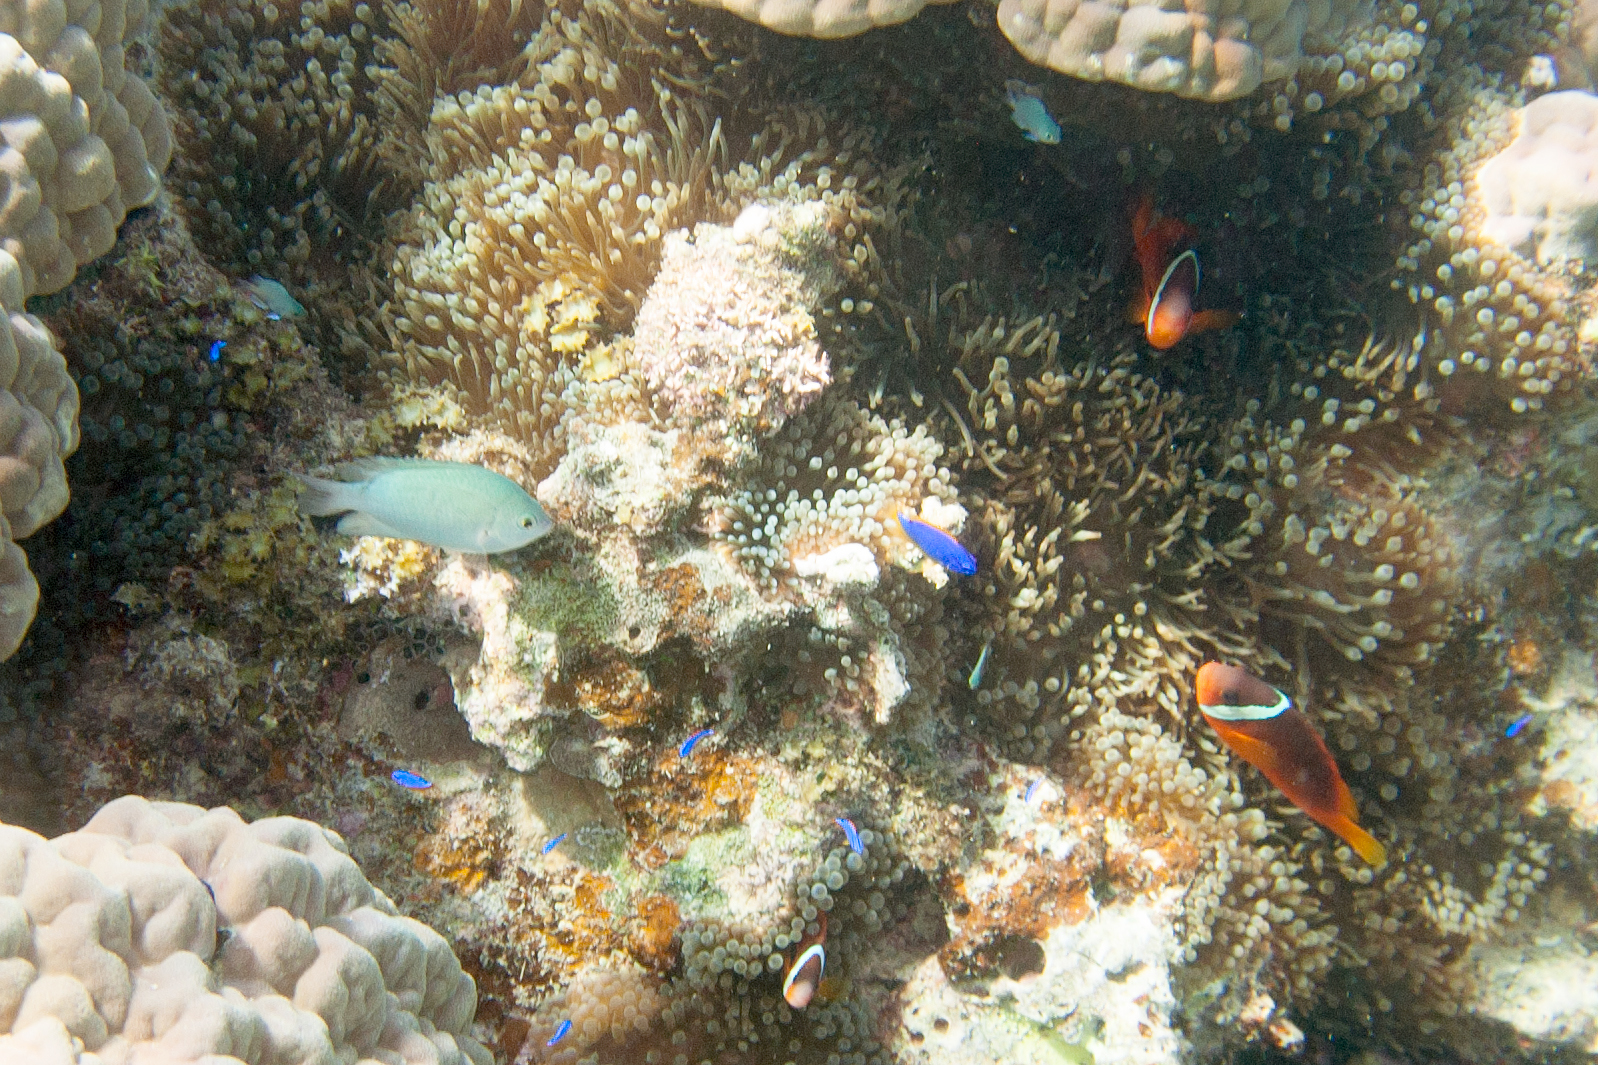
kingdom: Animalia
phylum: Cnidaria
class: Anthozoa
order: Actiniaria
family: Actiniidae
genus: Entacmaea
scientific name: Entacmaea quadricolor
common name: Bulb tentacle sea anemone
